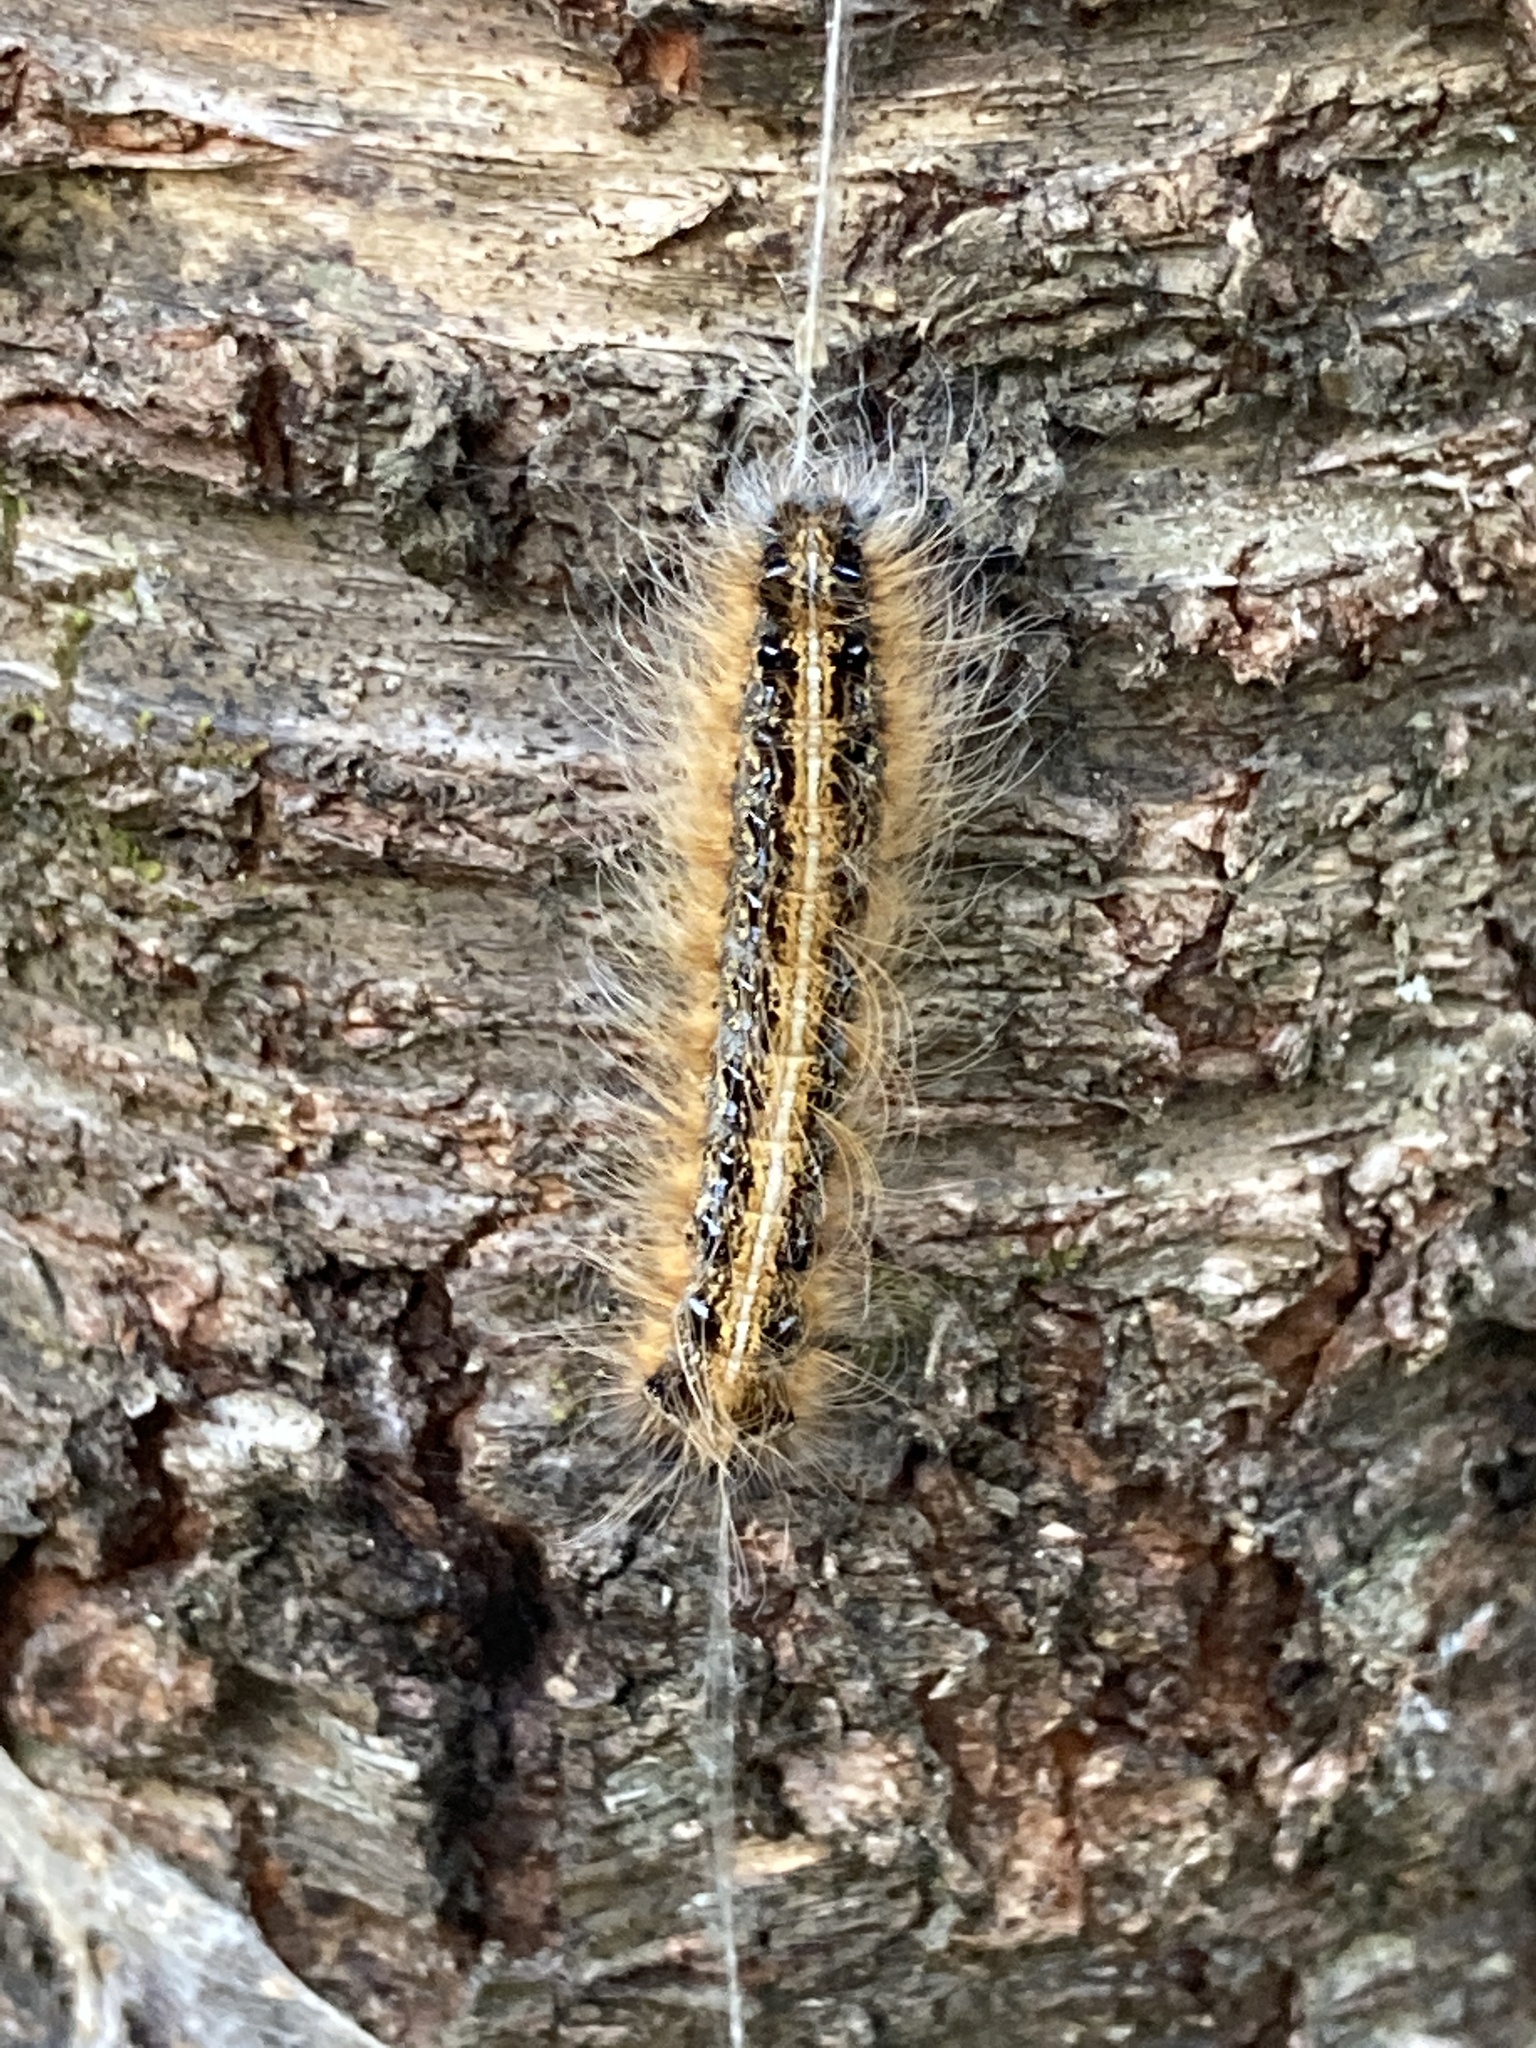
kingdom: Animalia
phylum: Arthropoda
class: Insecta
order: Lepidoptera
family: Lasiocampidae
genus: Malacosoma
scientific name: Malacosoma americana
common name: Eastern tent caterpillar moth
